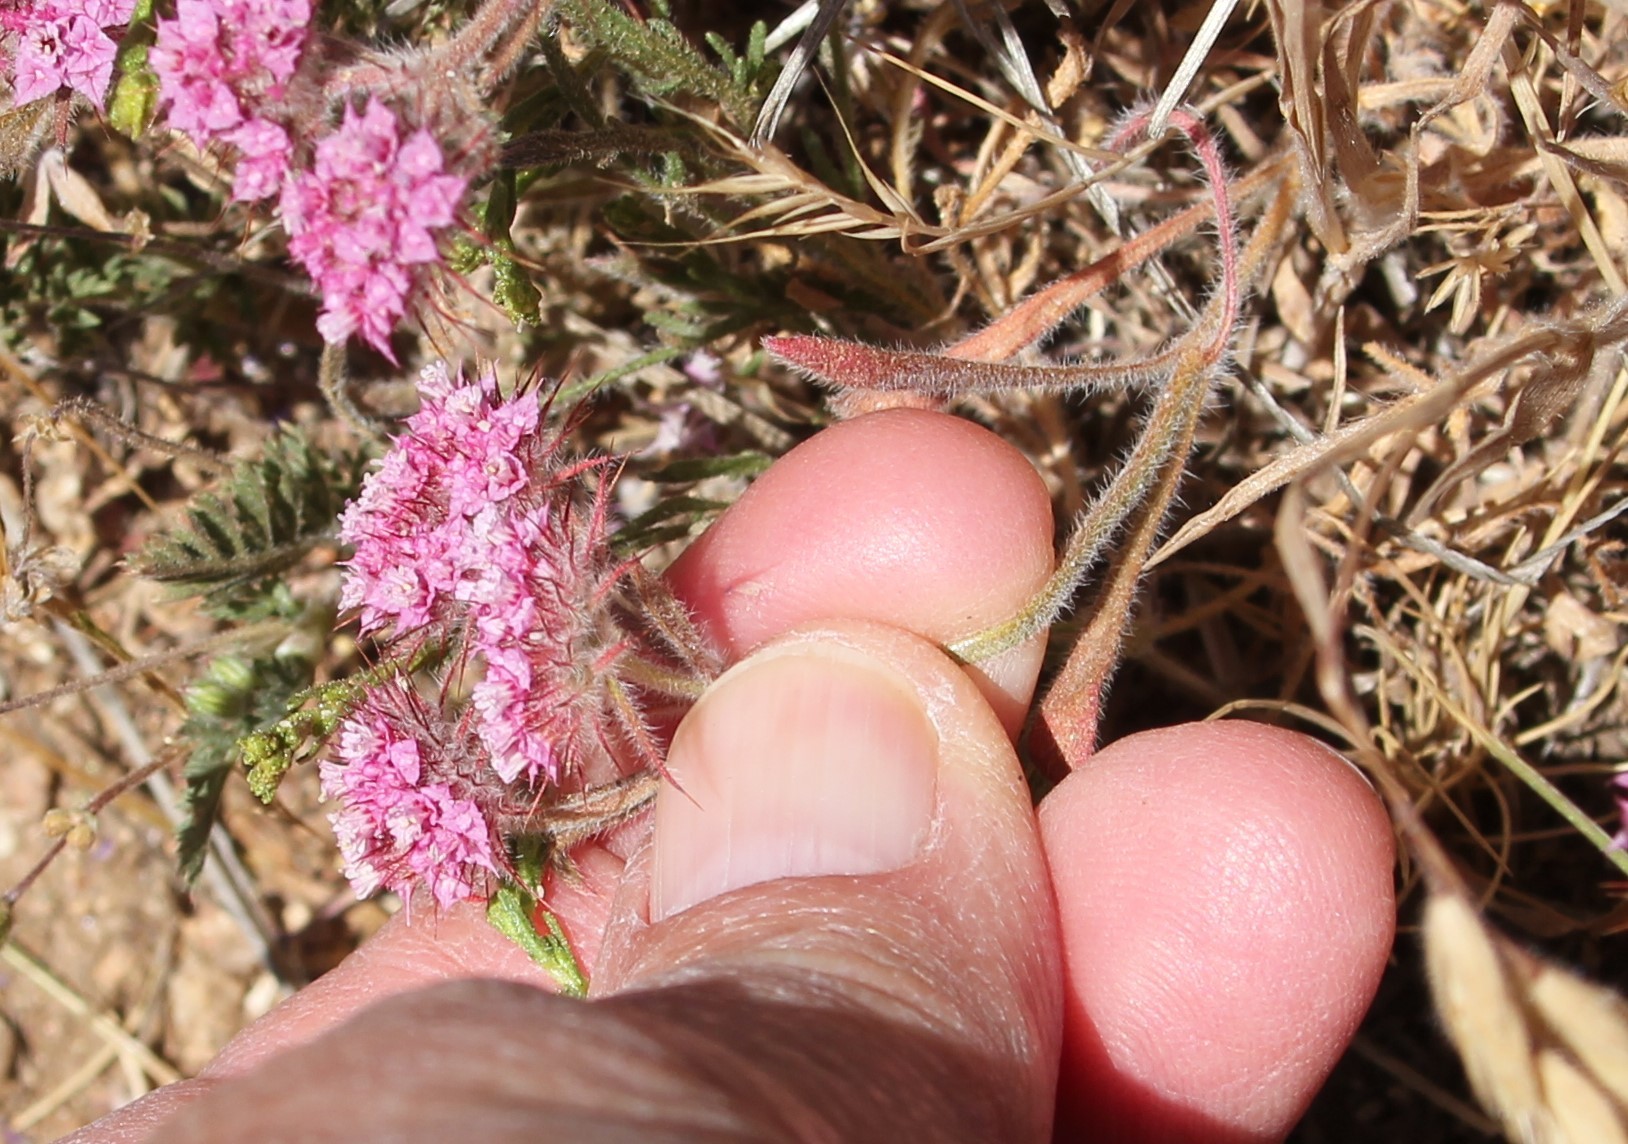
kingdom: Plantae
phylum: Tracheophyta
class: Magnoliopsida
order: Caryophyllales
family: Polygonaceae
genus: Chorizanthe
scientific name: Chorizanthe douglasii
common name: Douglas's spineflower
